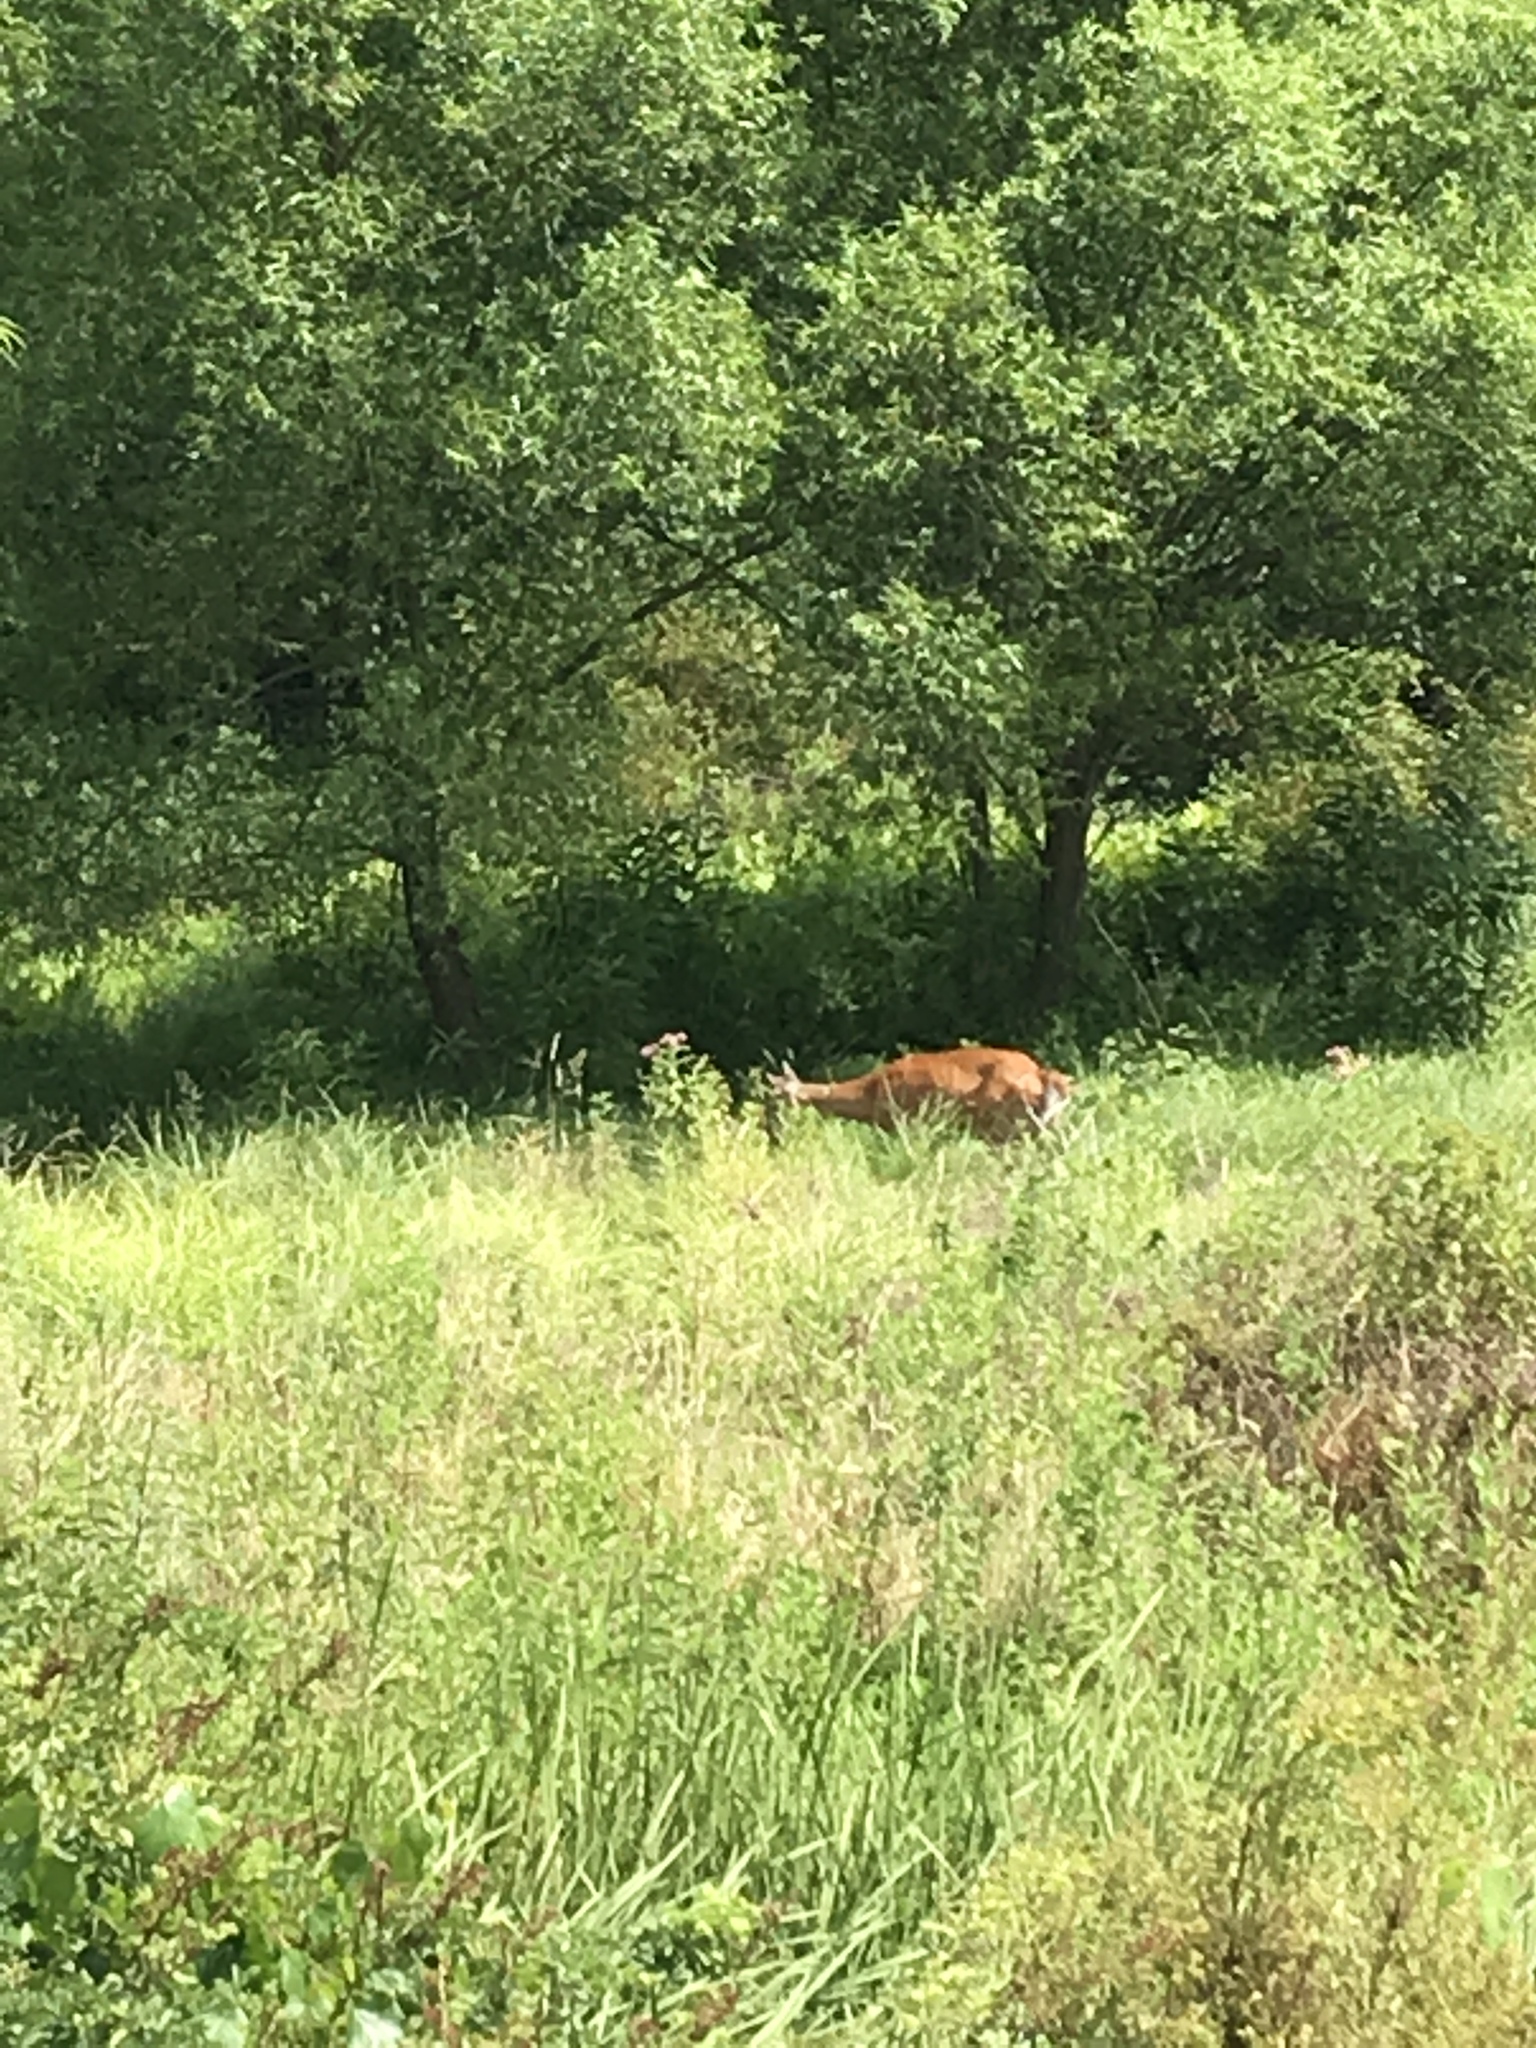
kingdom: Animalia
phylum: Chordata
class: Mammalia
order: Artiodactyla
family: Cervidae
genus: Odocoileus
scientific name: Odocoileus virginianus
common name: White-tailed deer
